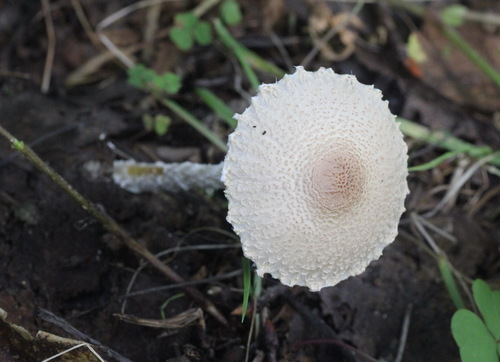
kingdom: Fungi
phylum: Basidiomycota
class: Agaricomycetes
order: Agaricales
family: Agaricaceae
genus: Lepiota
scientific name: Lepiota clypeolaria
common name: Shield dapperling
